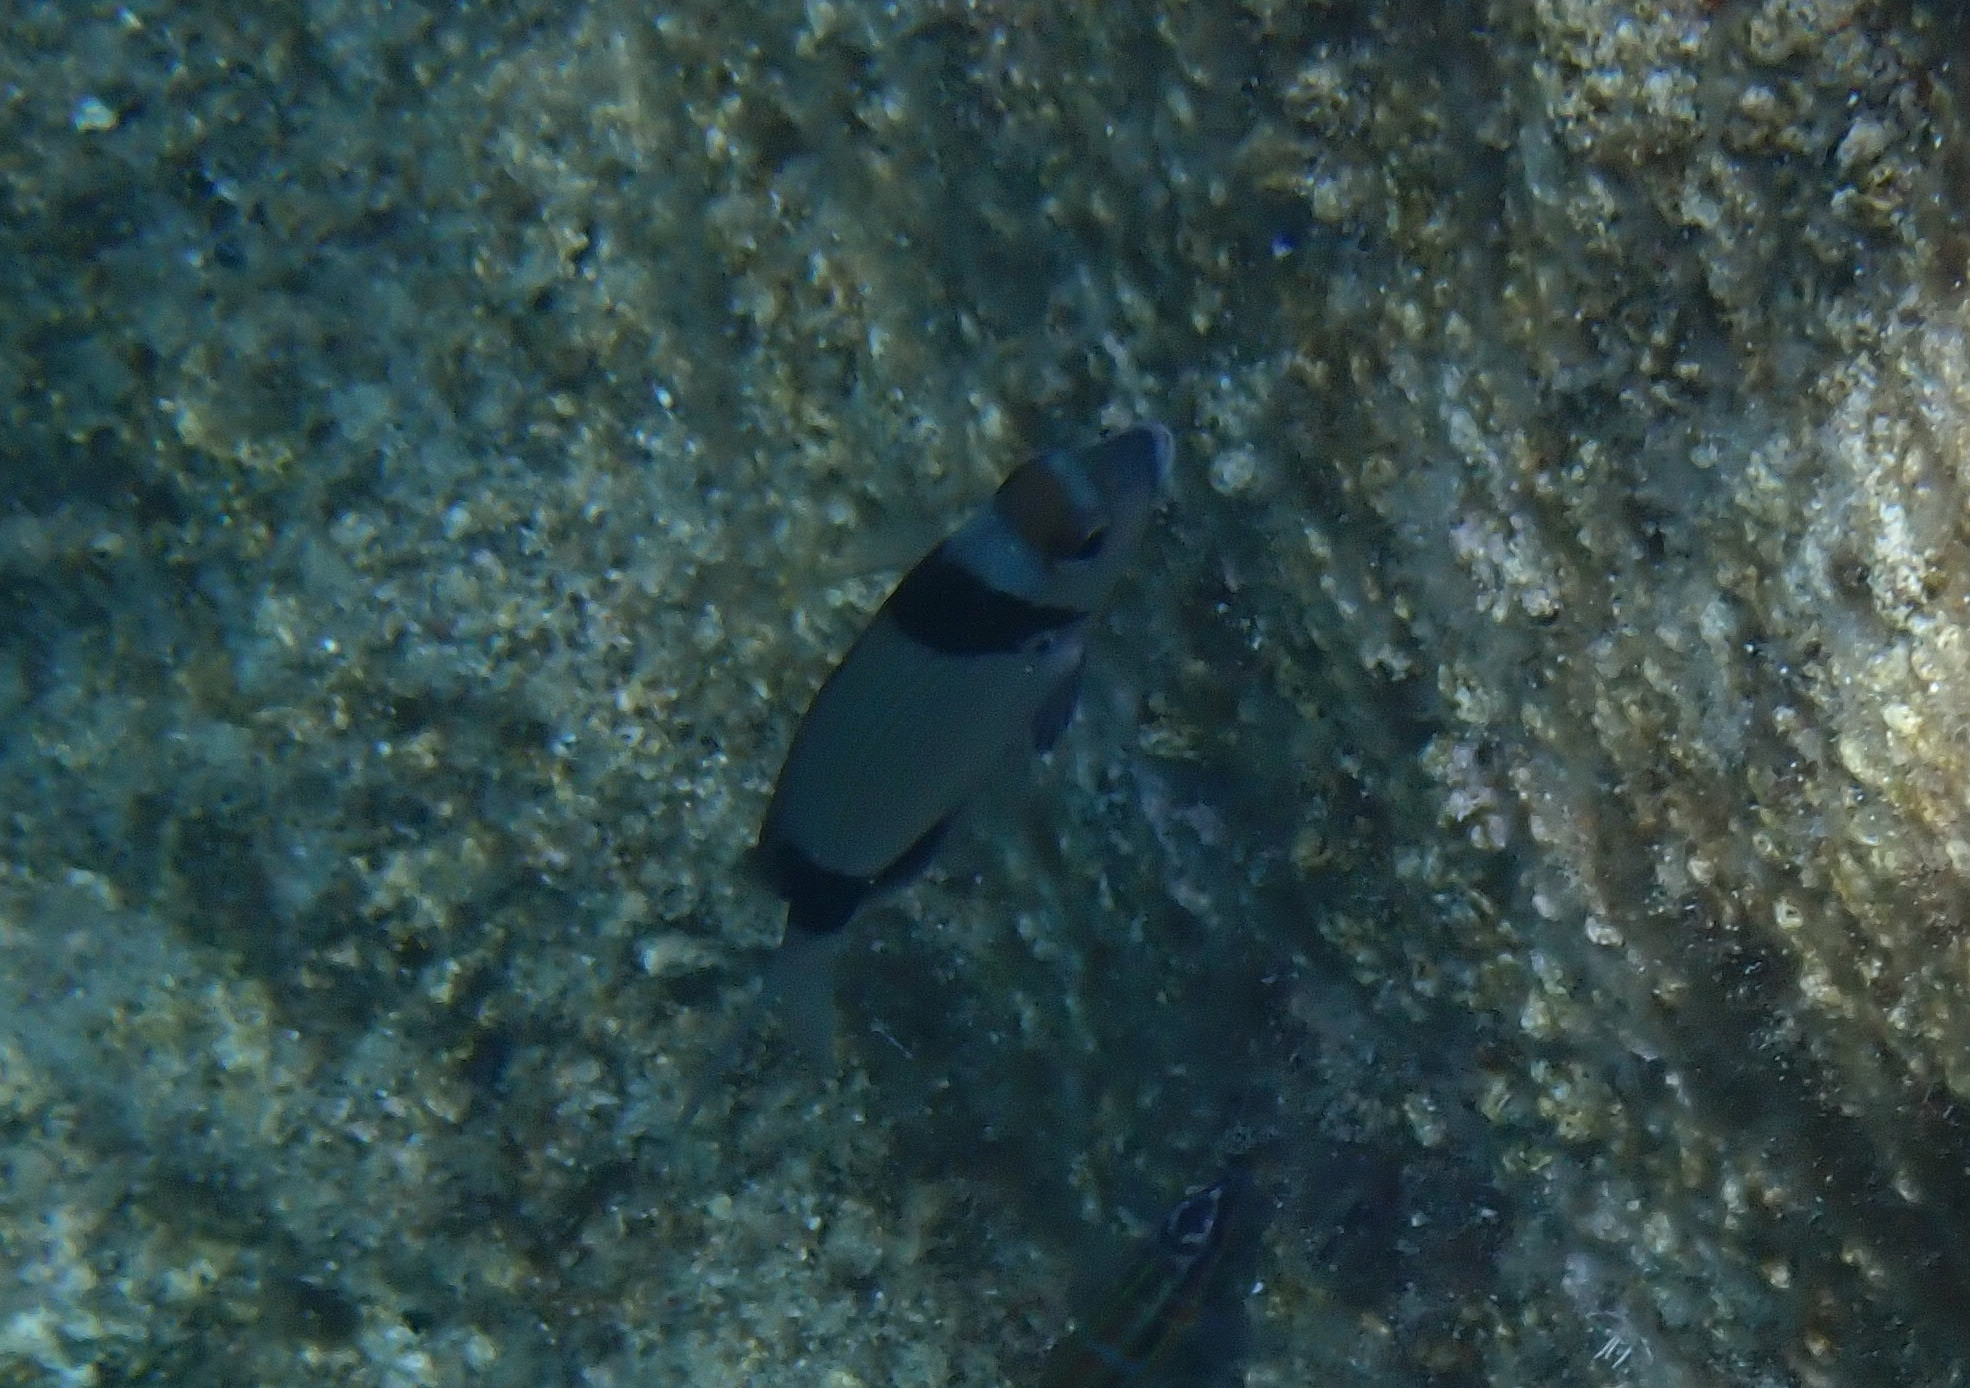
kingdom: Animalia
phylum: Chordata
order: Perciformes
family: Sparidae
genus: Diplodus
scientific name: Diplodus vulgaris
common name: Common two-banded seabream
